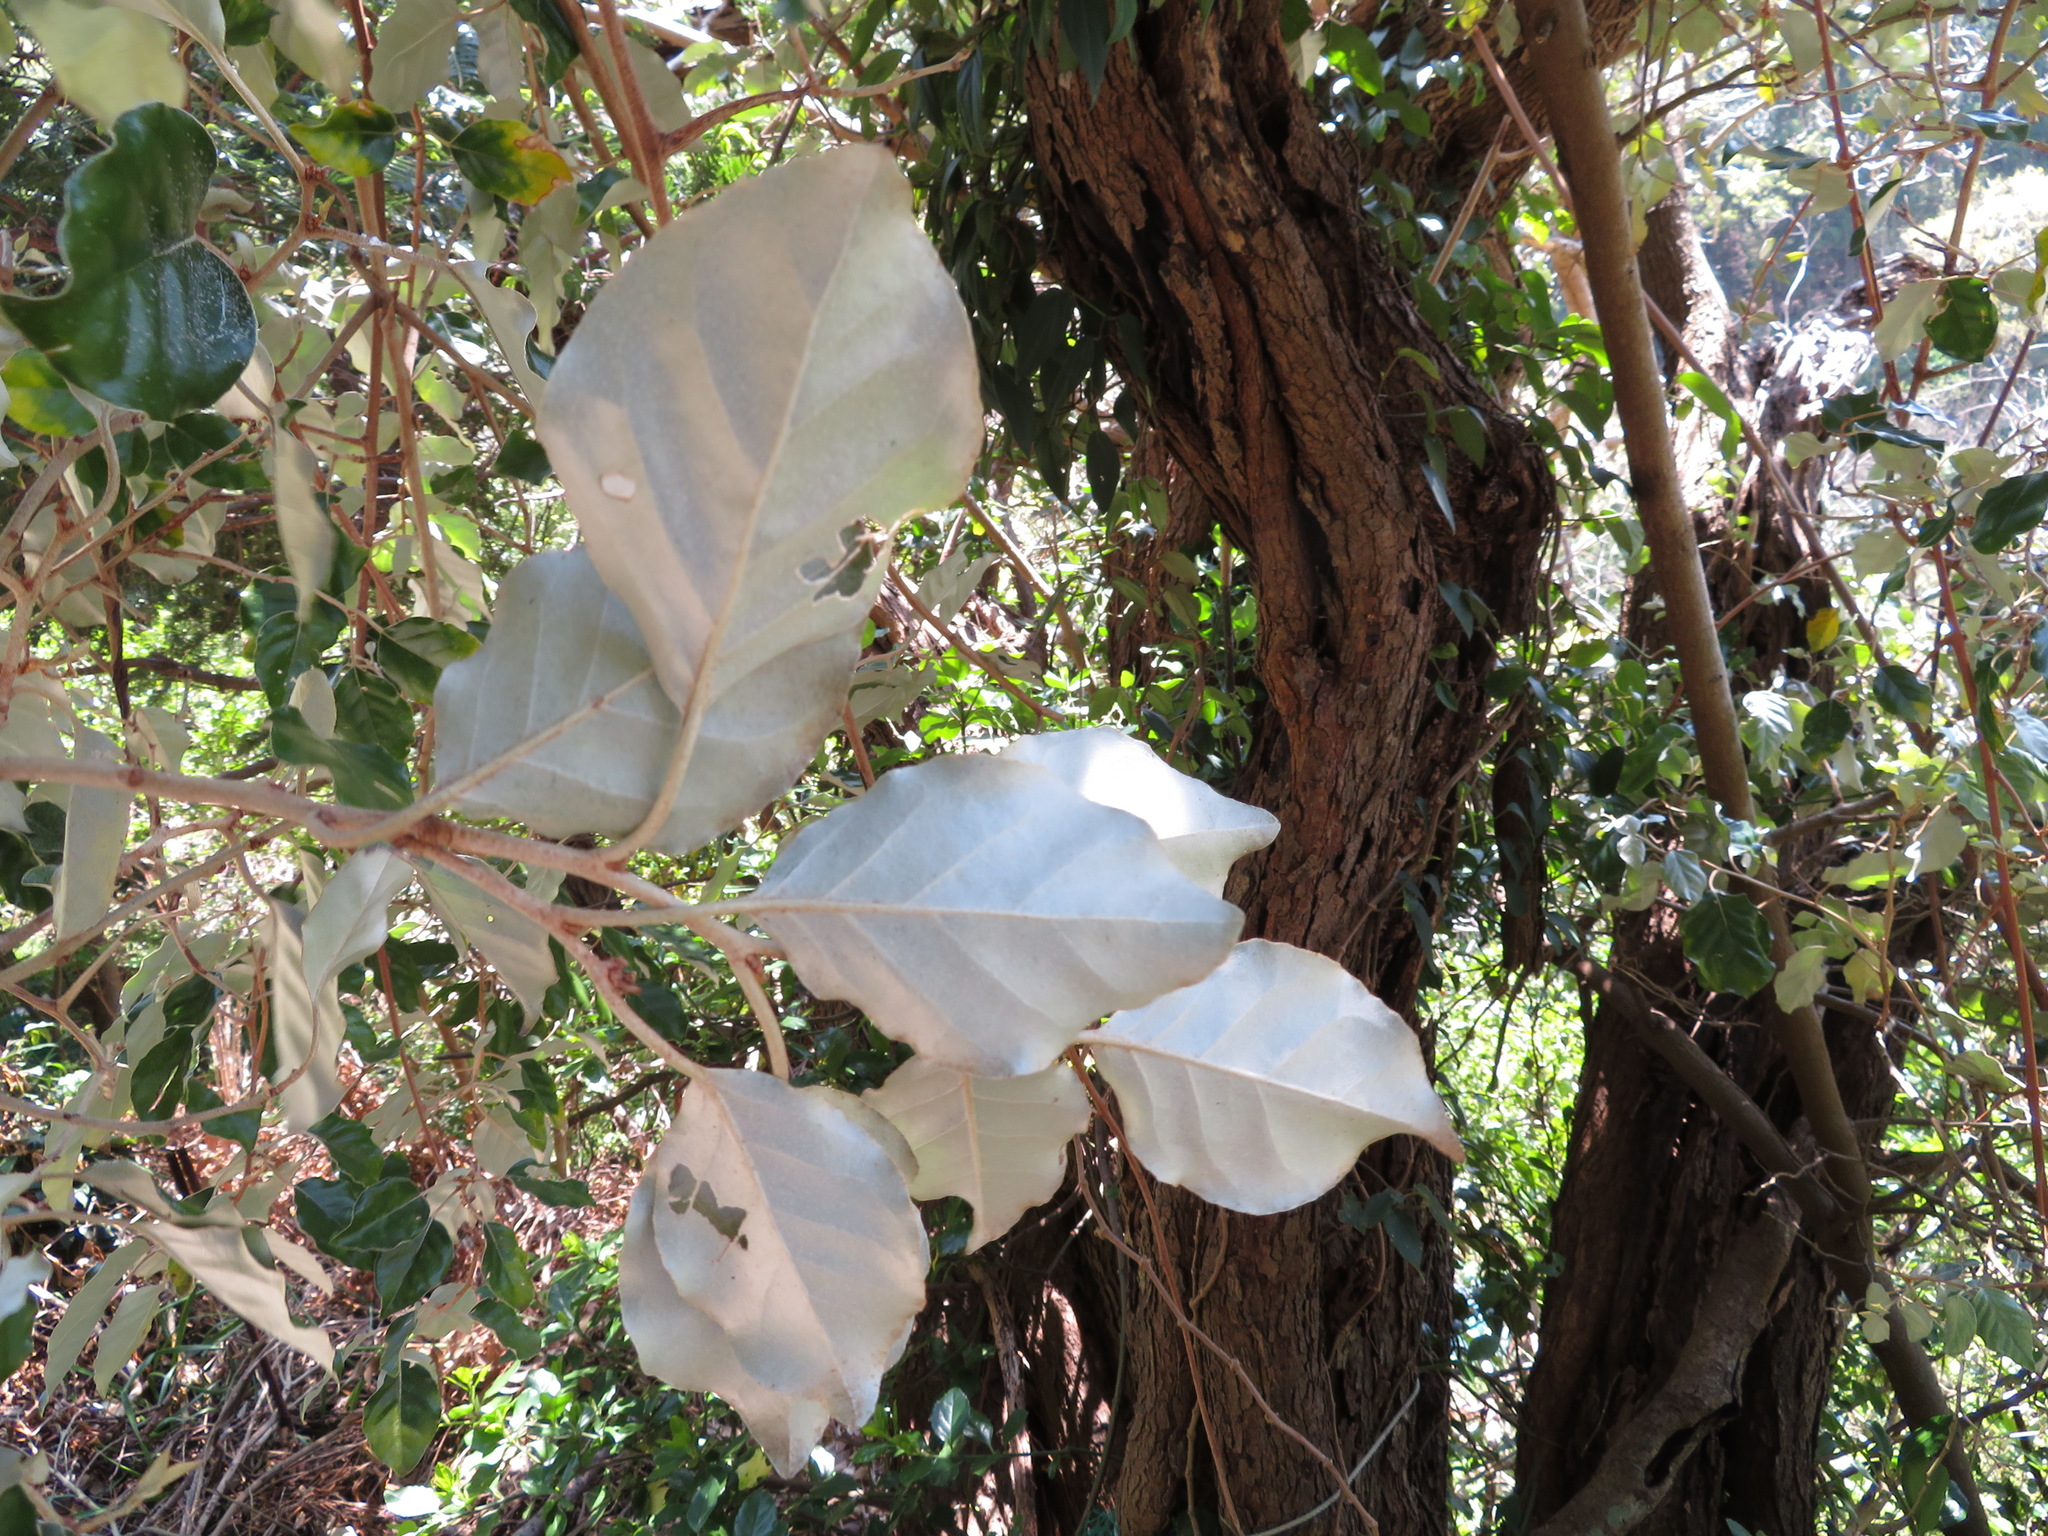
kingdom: Plantae
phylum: Tracheophyta
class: Magnoliopsida
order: Rosales
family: Elaeagnaceae
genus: Elaeagnus
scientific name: Elaeagnus umbellata
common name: Autumn olive
